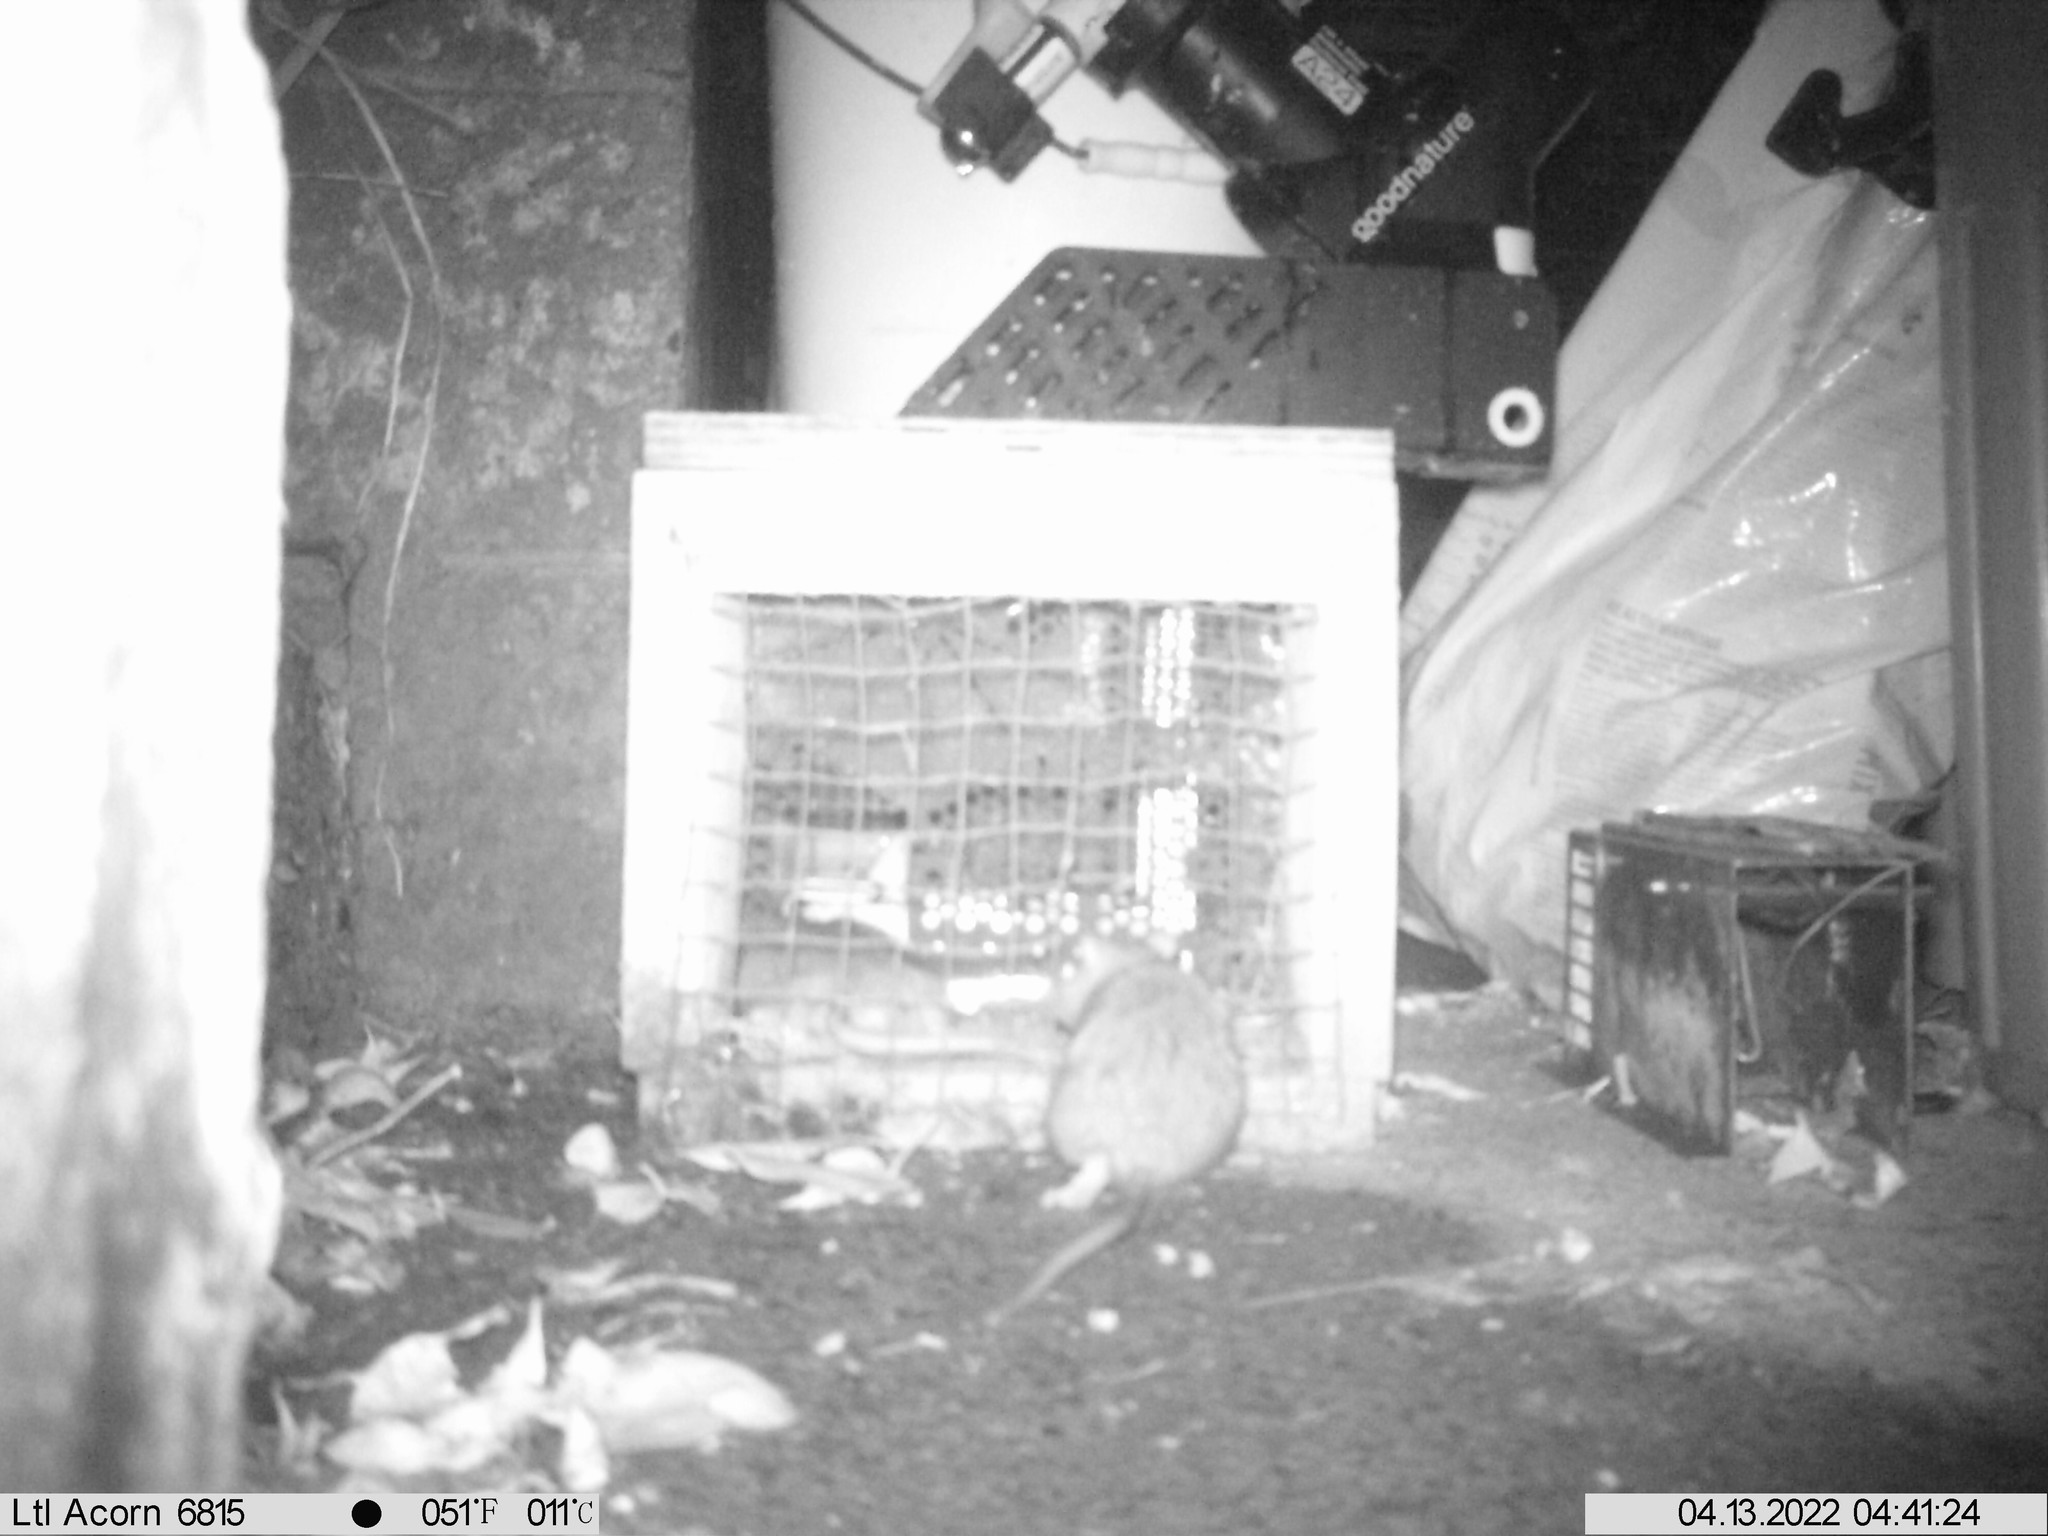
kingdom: Animalia
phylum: Chordata
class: Mammalia
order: Rodentia
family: Muridae
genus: Rattus
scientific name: Rattus norvegicus
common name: Brown rat
